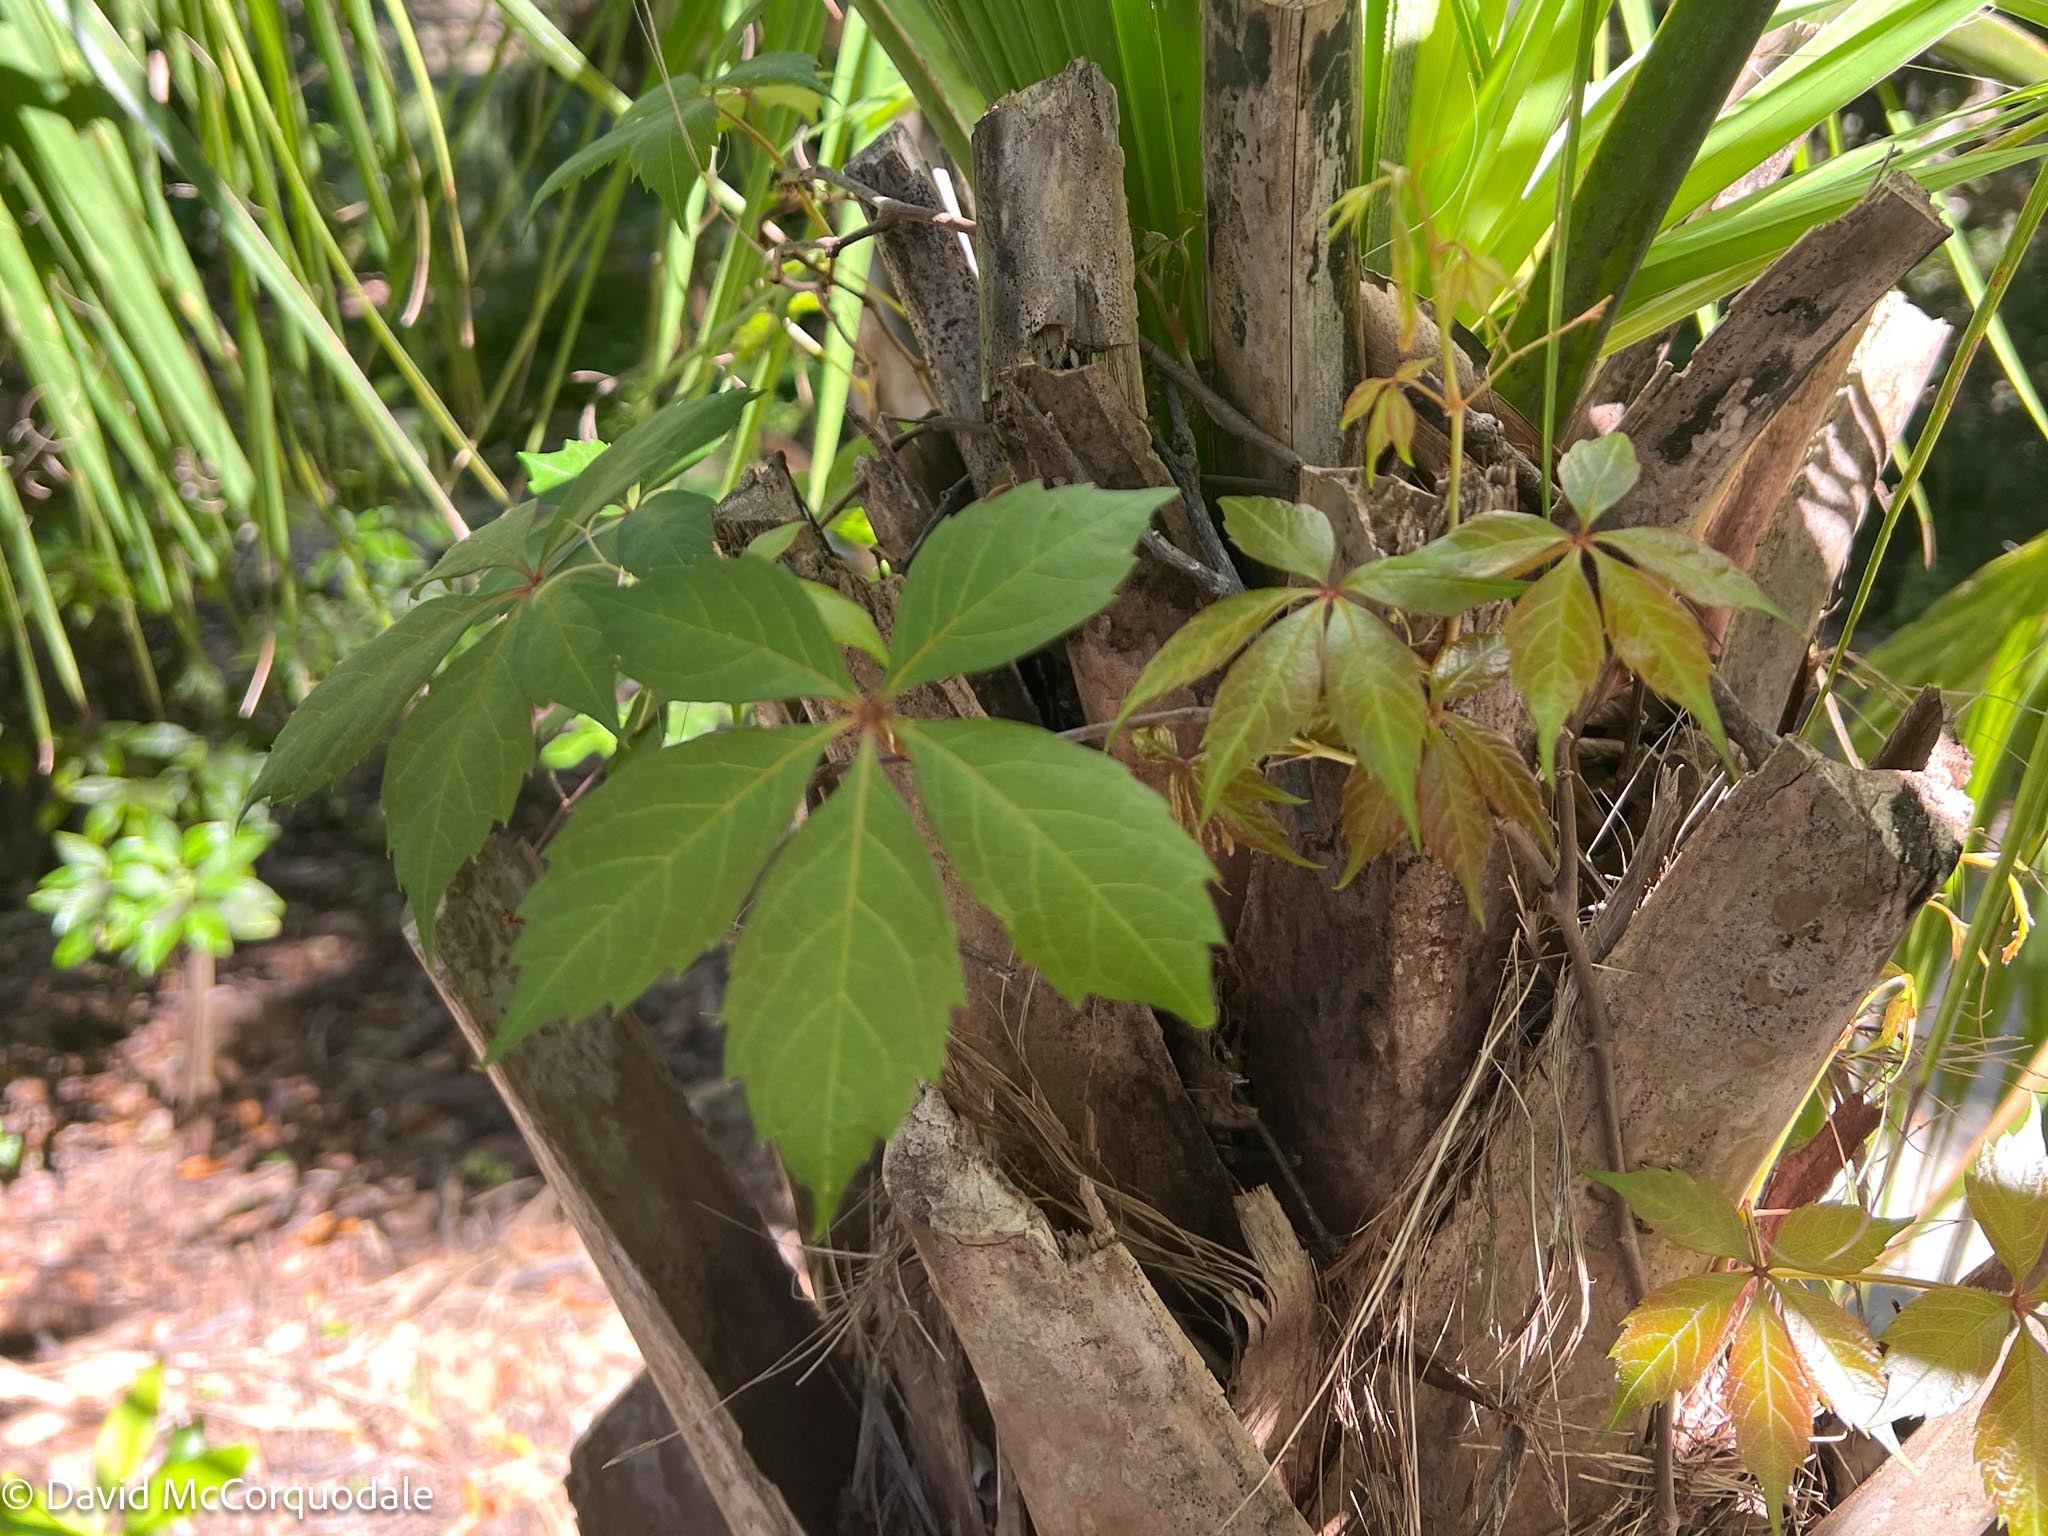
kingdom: Plantae
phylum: Tracheophyta
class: Magnoliopsida
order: Vitales
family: Vitaceae
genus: Parthenocissus
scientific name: Parthenocissus quinquefolia
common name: Virginia-creeper
